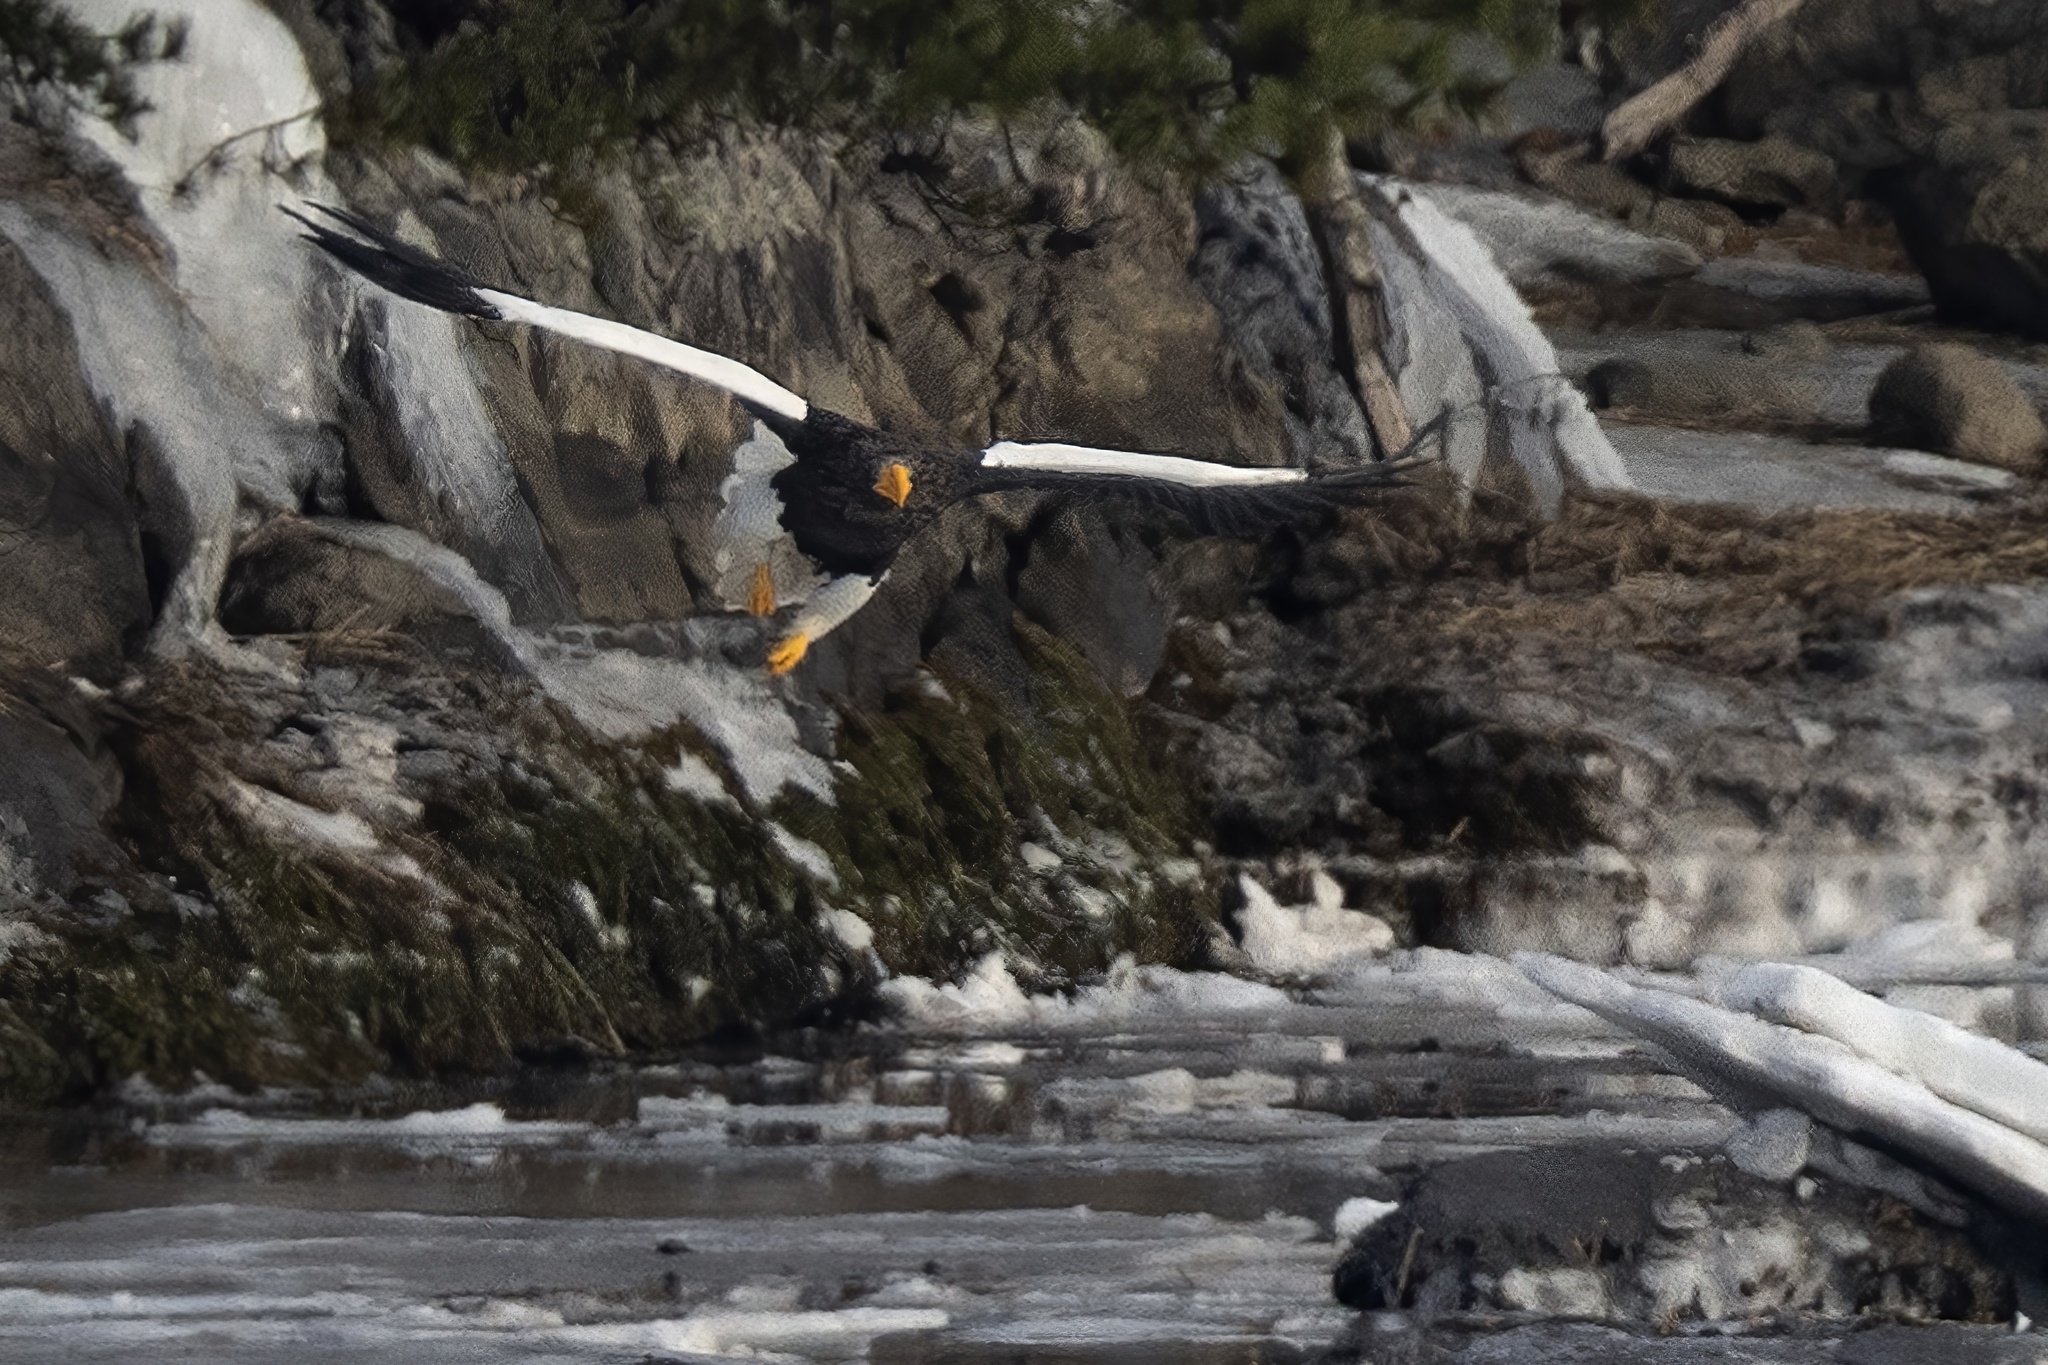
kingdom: Animalia
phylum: Chordata
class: Aves
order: Accipitriformes
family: Accipitridae
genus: Haliaeetus
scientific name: Haliaeetus pelagicus
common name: Steller's sea eagle
